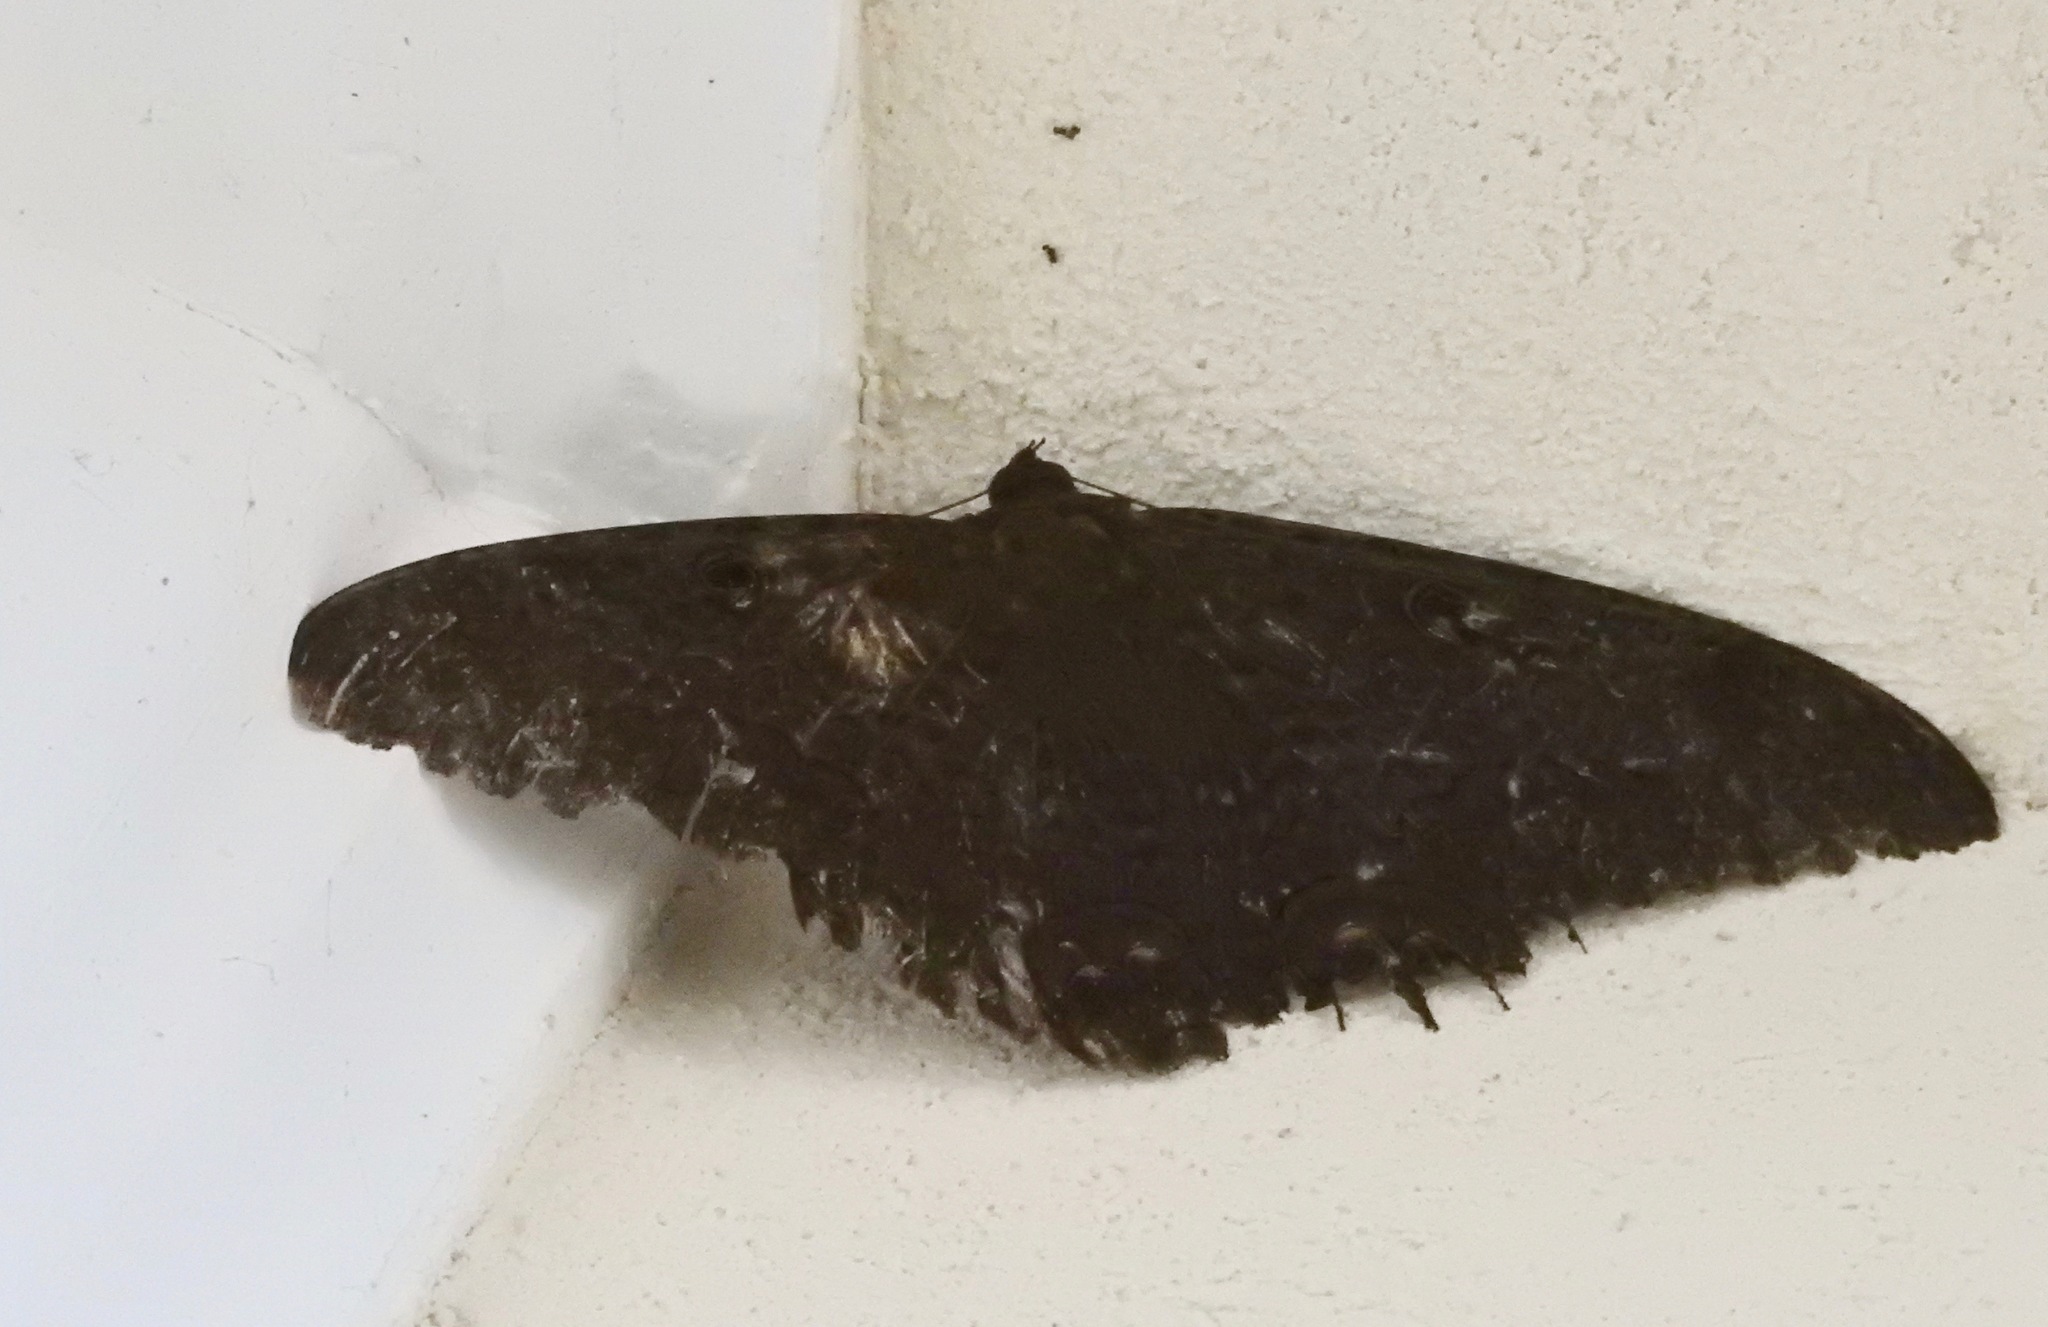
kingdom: Animalia
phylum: Arthropoda
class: Insecta
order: Lepidoptera
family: Erebidae
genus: Ascalapha
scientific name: Ascalapha odorata
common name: Black witch
